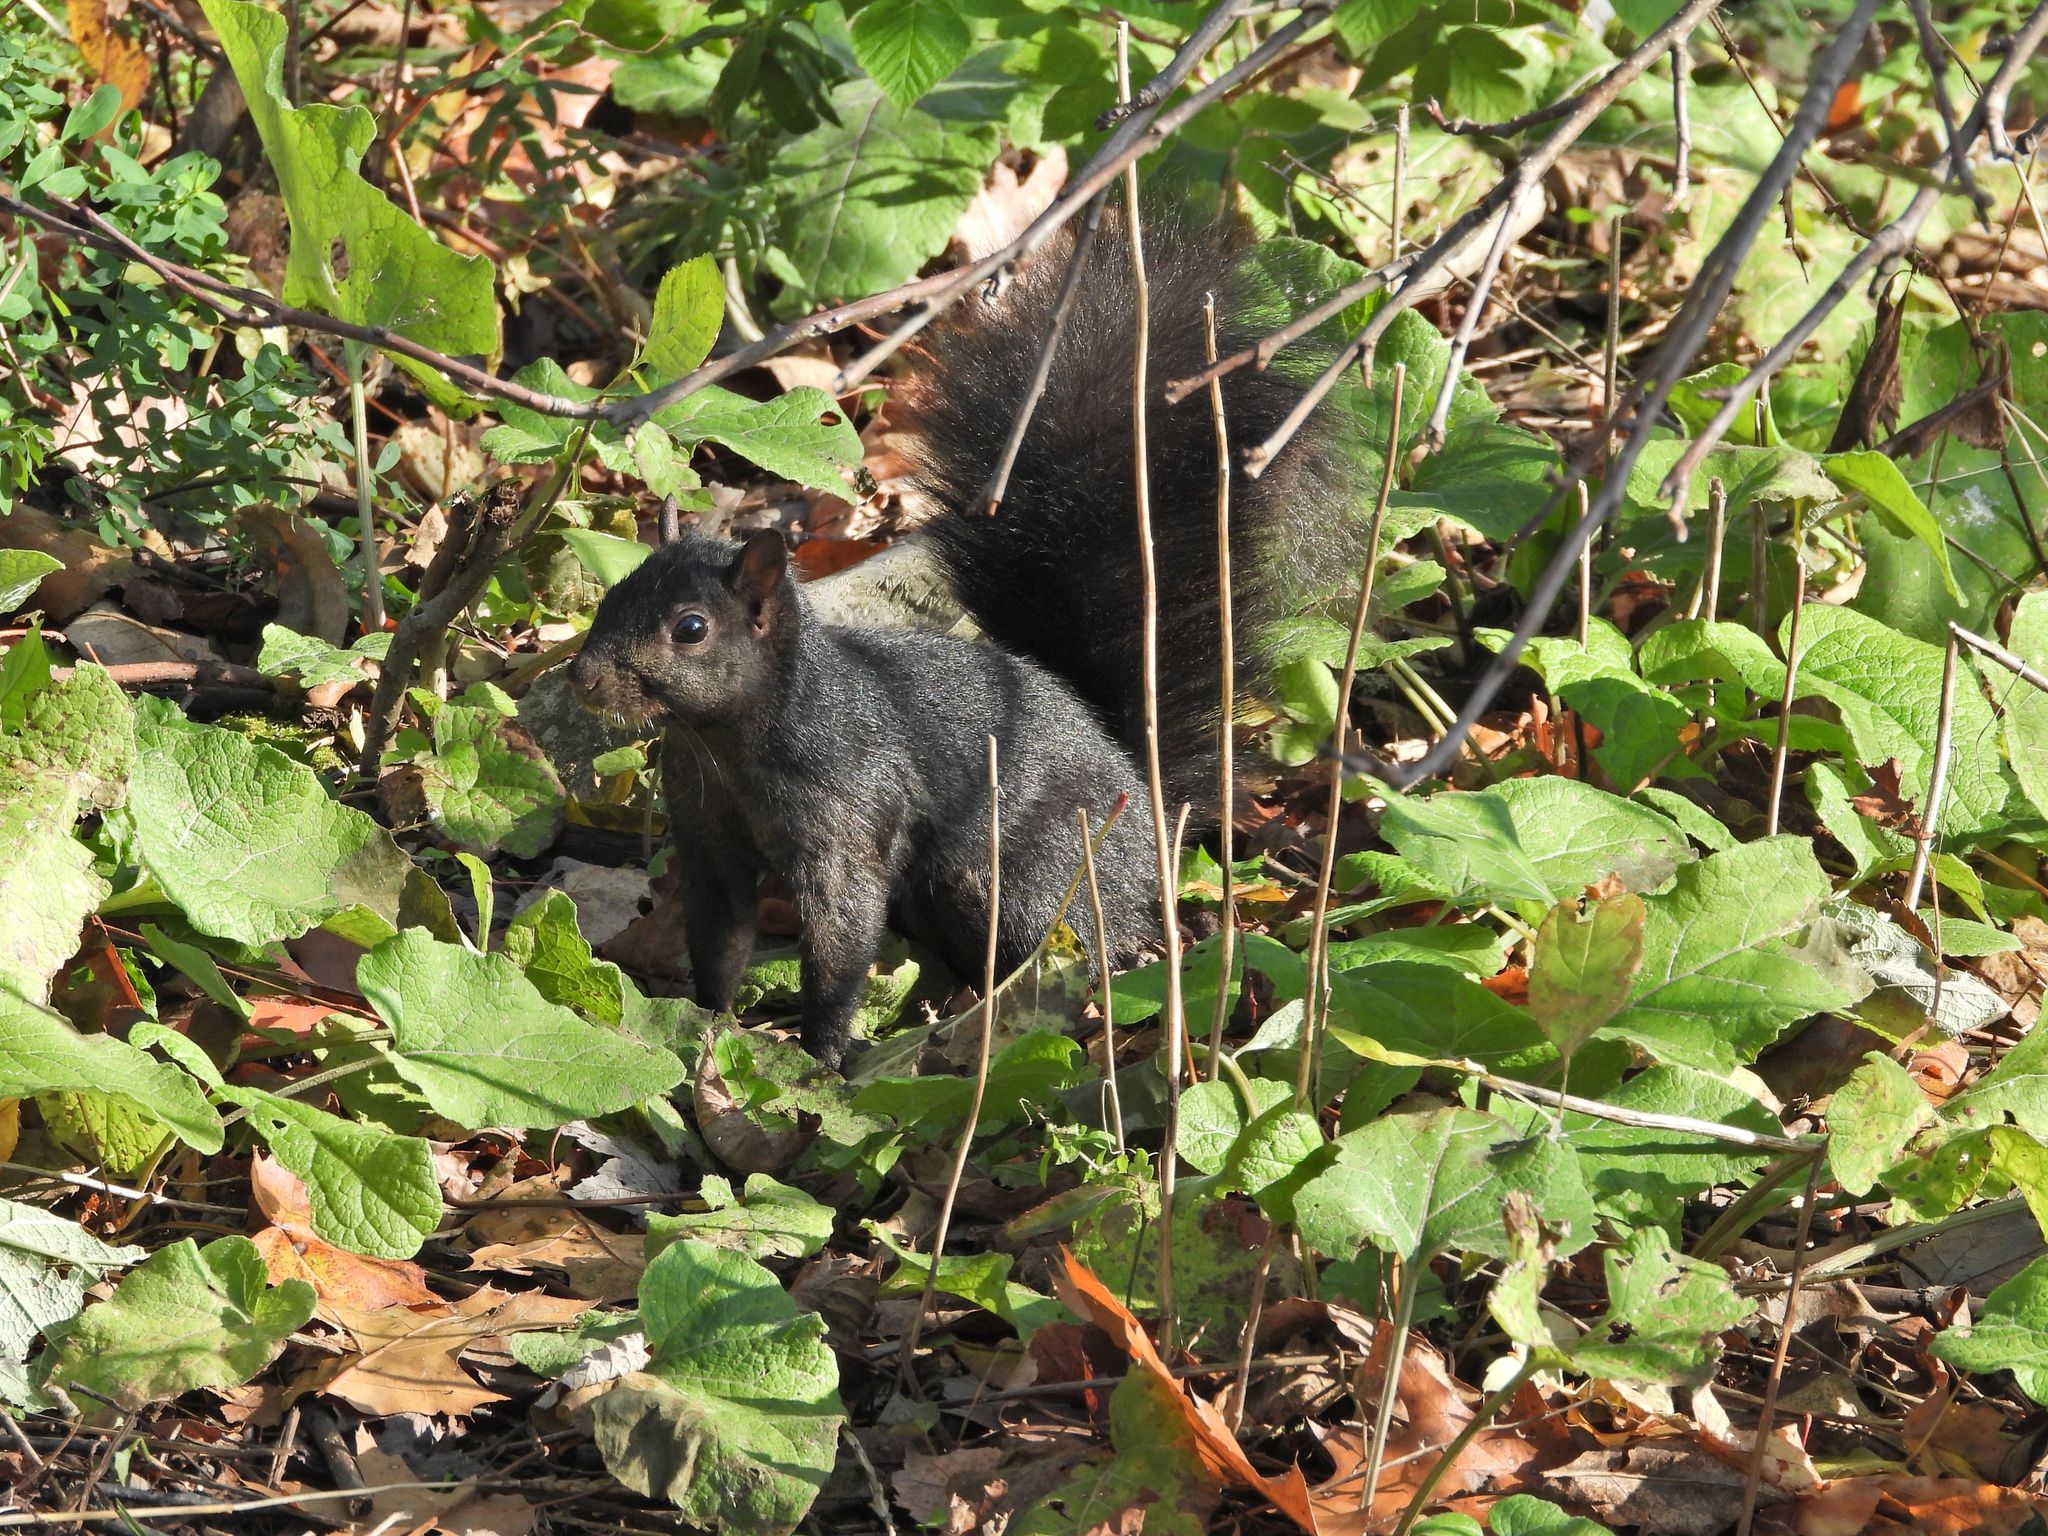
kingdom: Animalia
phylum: Chordata
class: Mammalia
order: Rodentia
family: Sciuridae
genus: Sciurus
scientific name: Sciurus carolinensis
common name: Eastern gray squirrel
